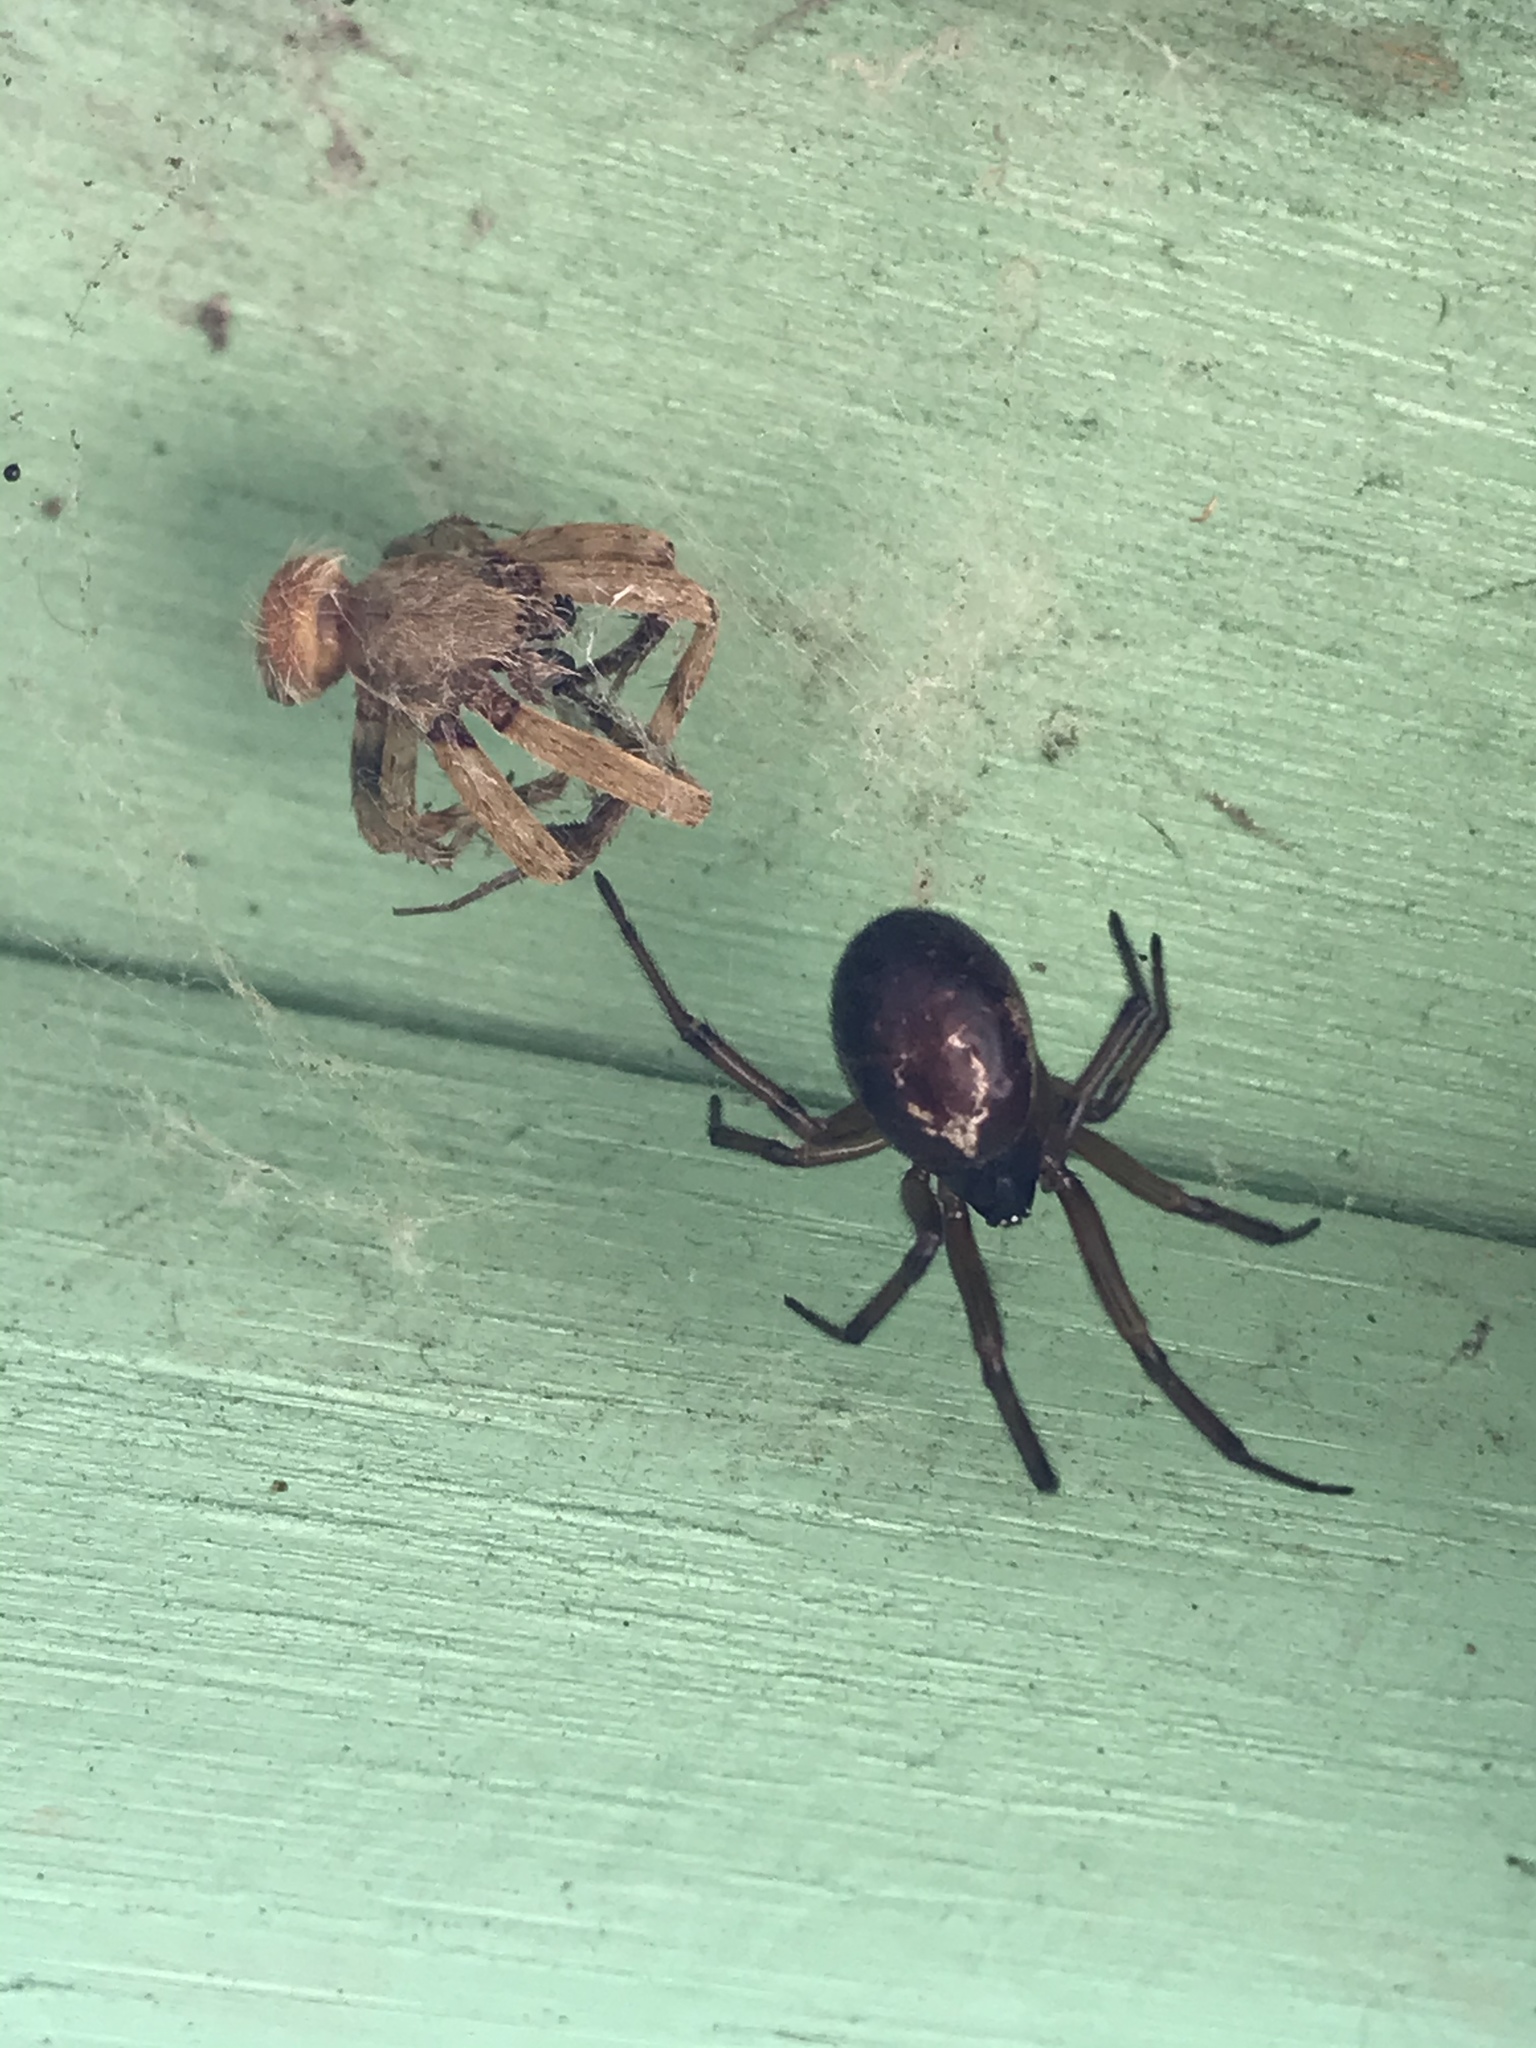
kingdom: Animalia
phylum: Arthropoda
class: Arachnida
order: Araneae
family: Theridiidae
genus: Steatoda
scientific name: Steatoda nobilis
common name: Cobweb weaver
